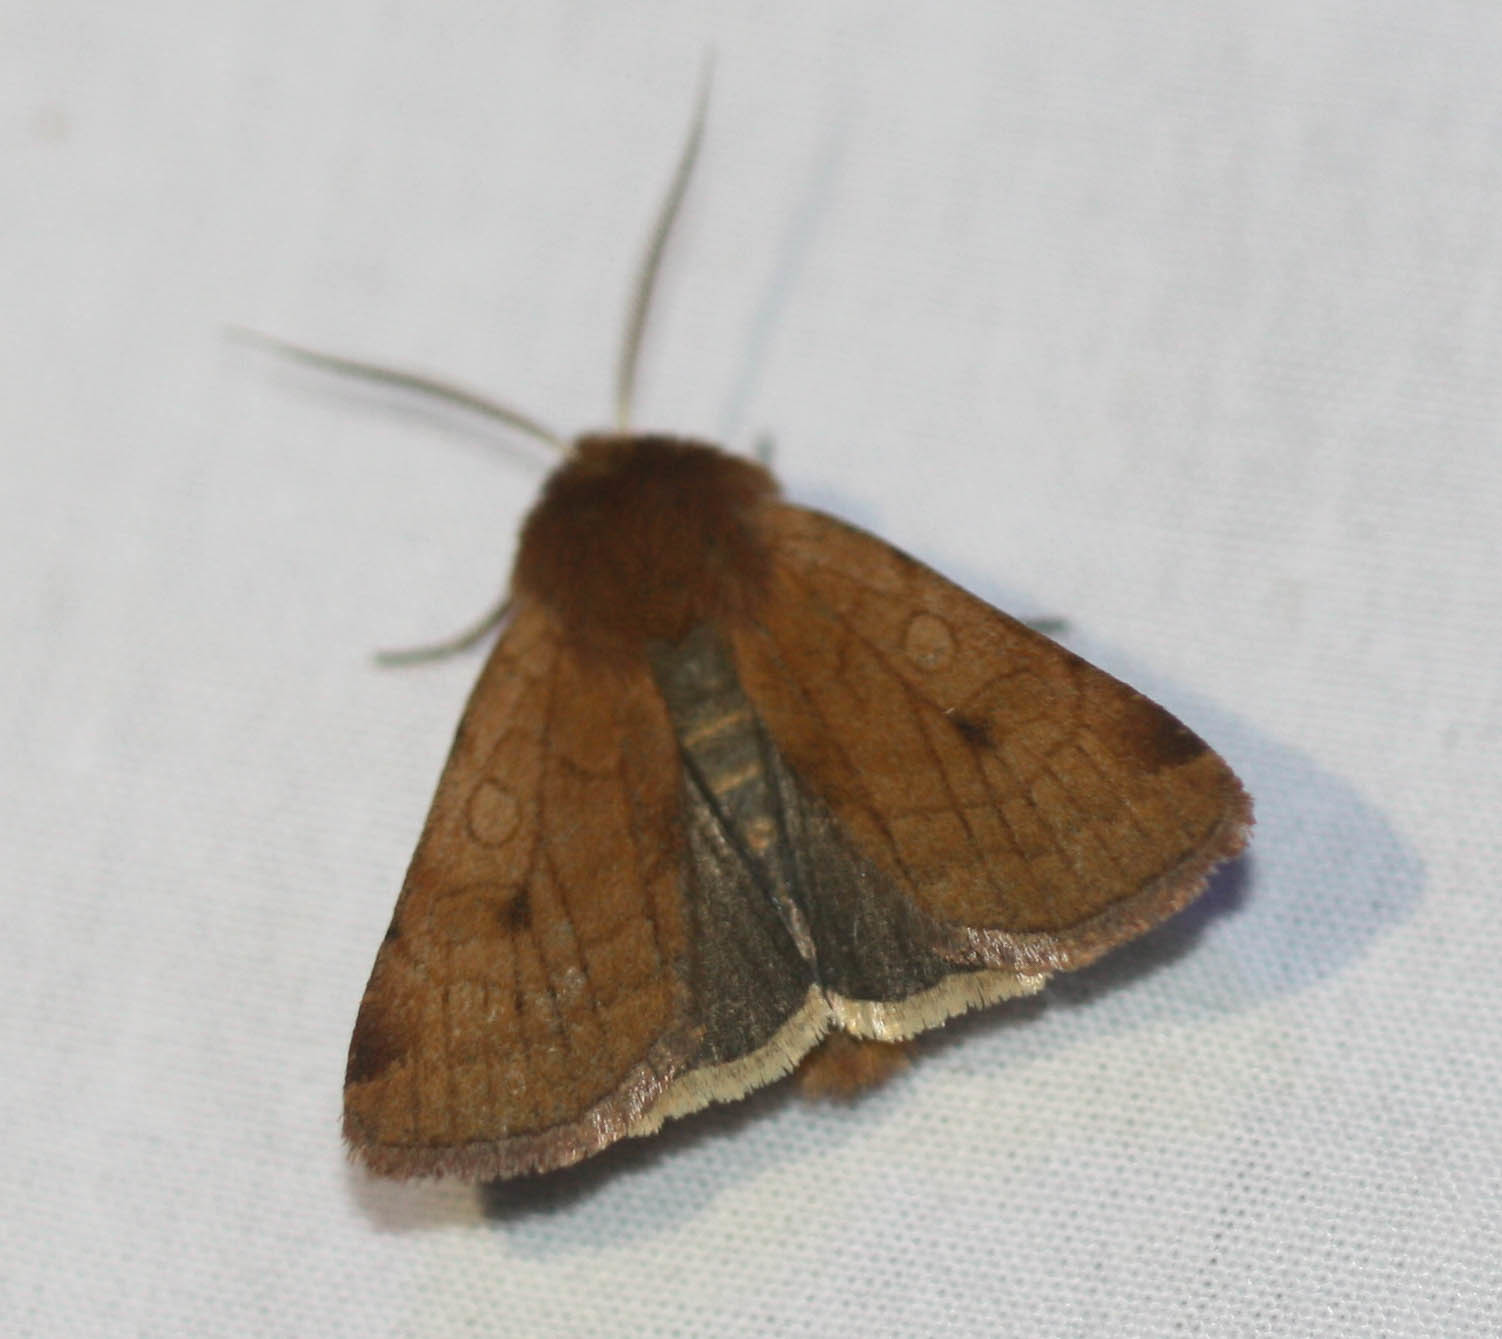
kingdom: Animalia
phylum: Arthropoda
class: Insecta
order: Lepidoptera
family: Noctuidae
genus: Paradiarsia
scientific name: Paradiarsia littoralis
